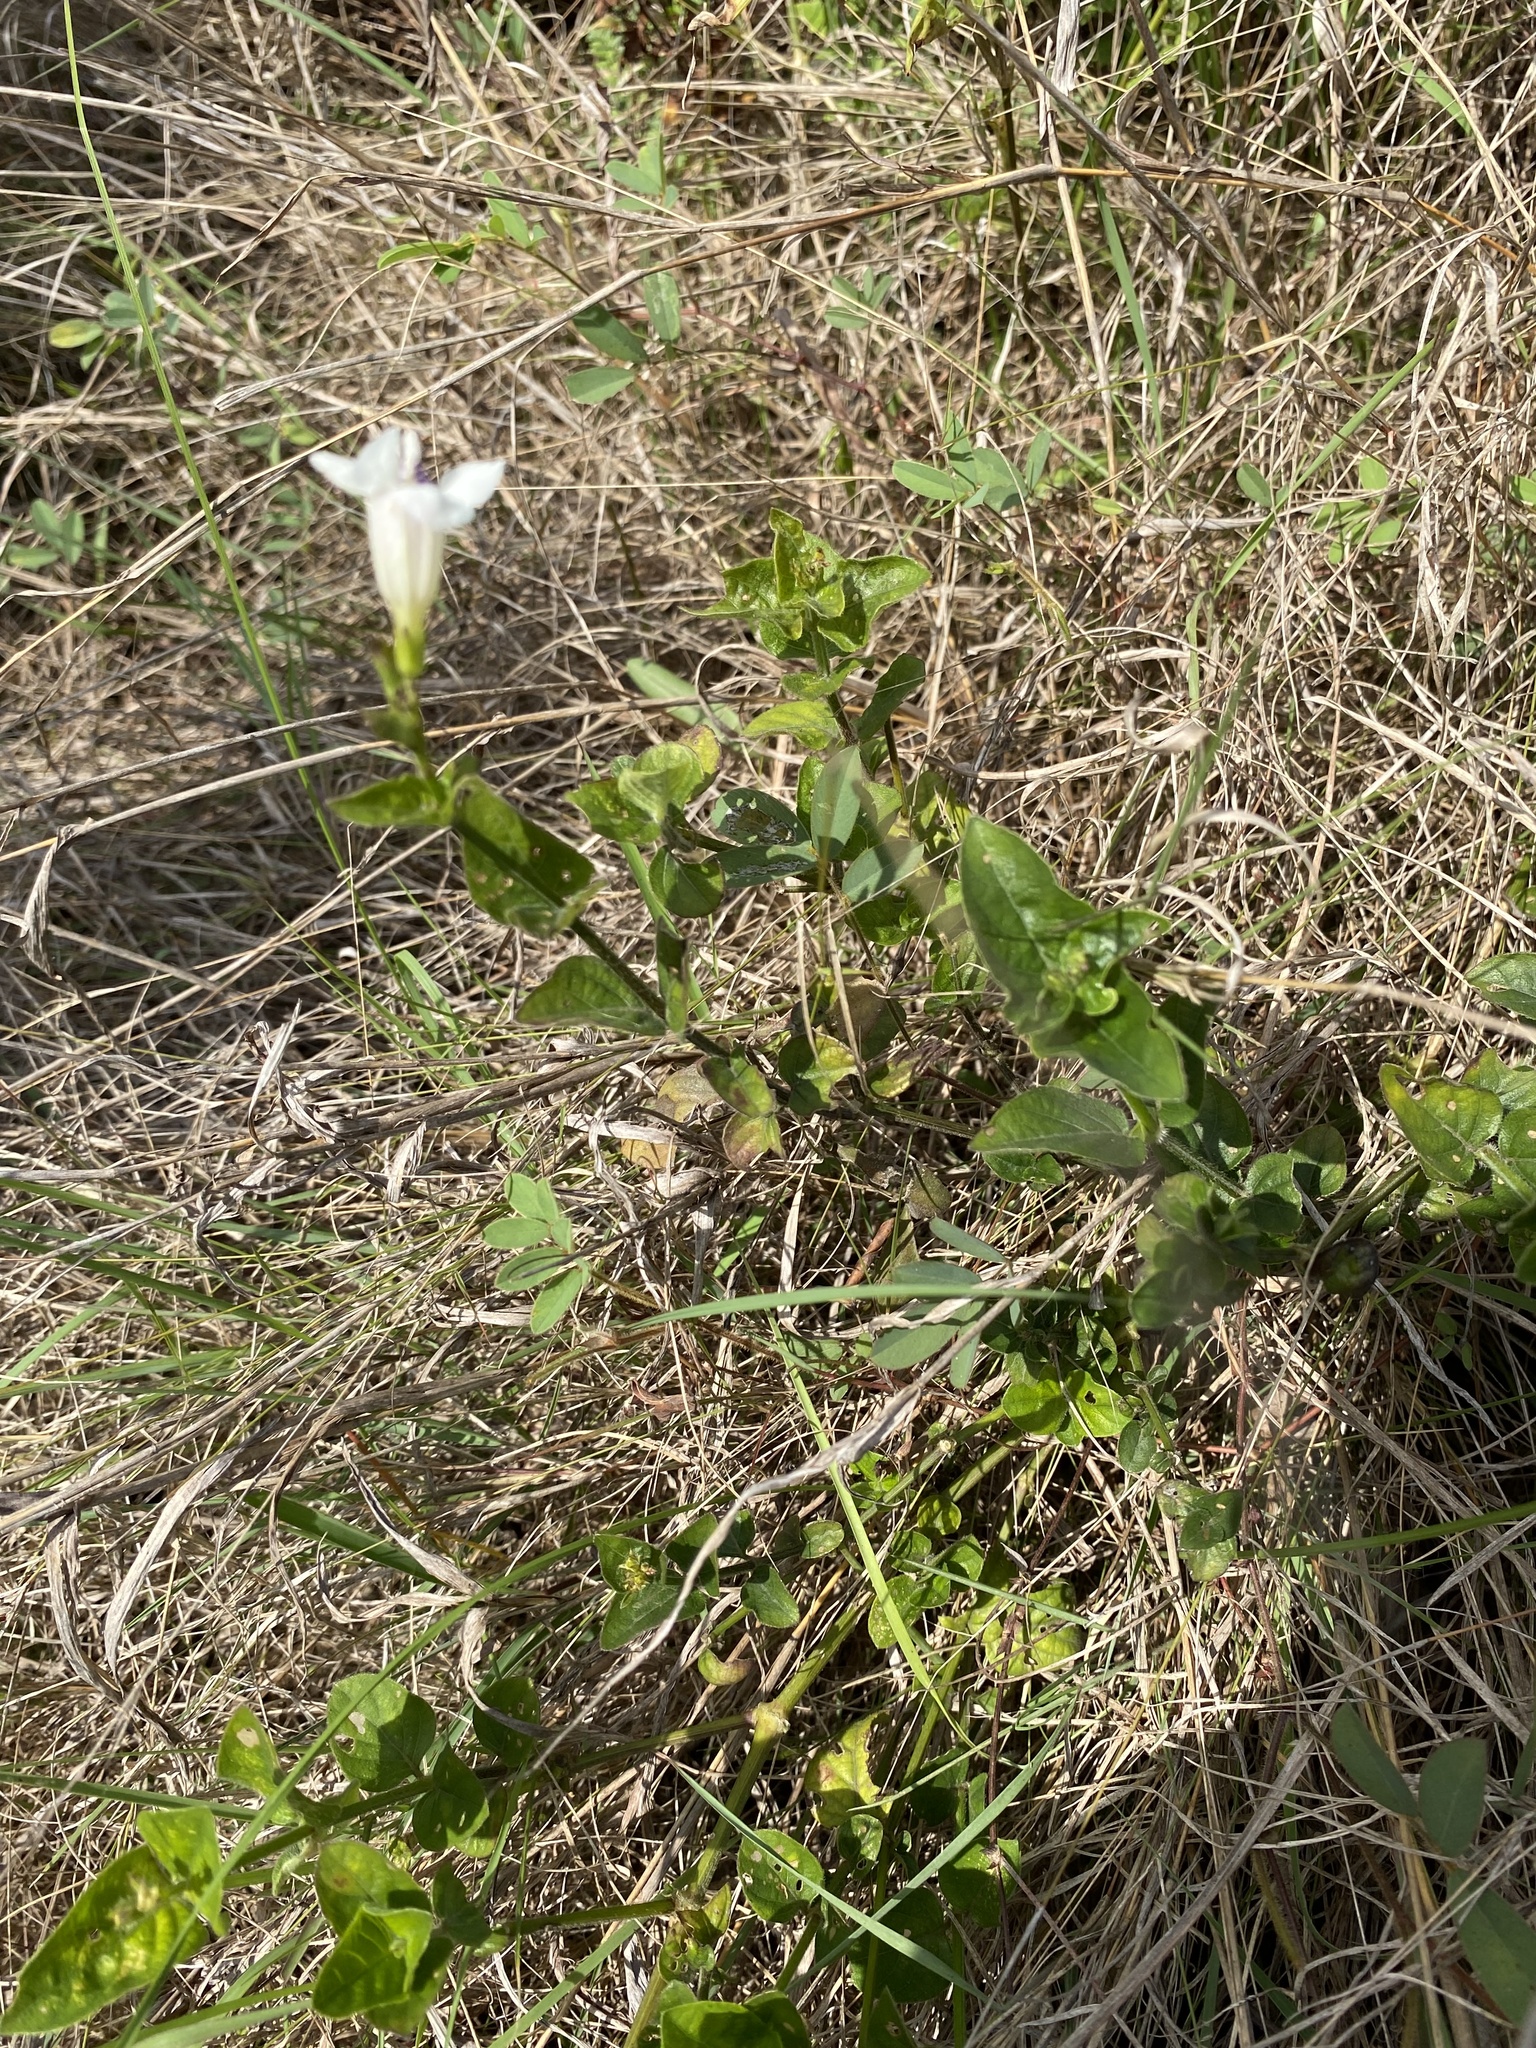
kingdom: Plantae
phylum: Tracheophyta
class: Magnoliopsida
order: Lamiales
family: Acanthaceae
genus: Asystasia
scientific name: Asystasia intrusa
